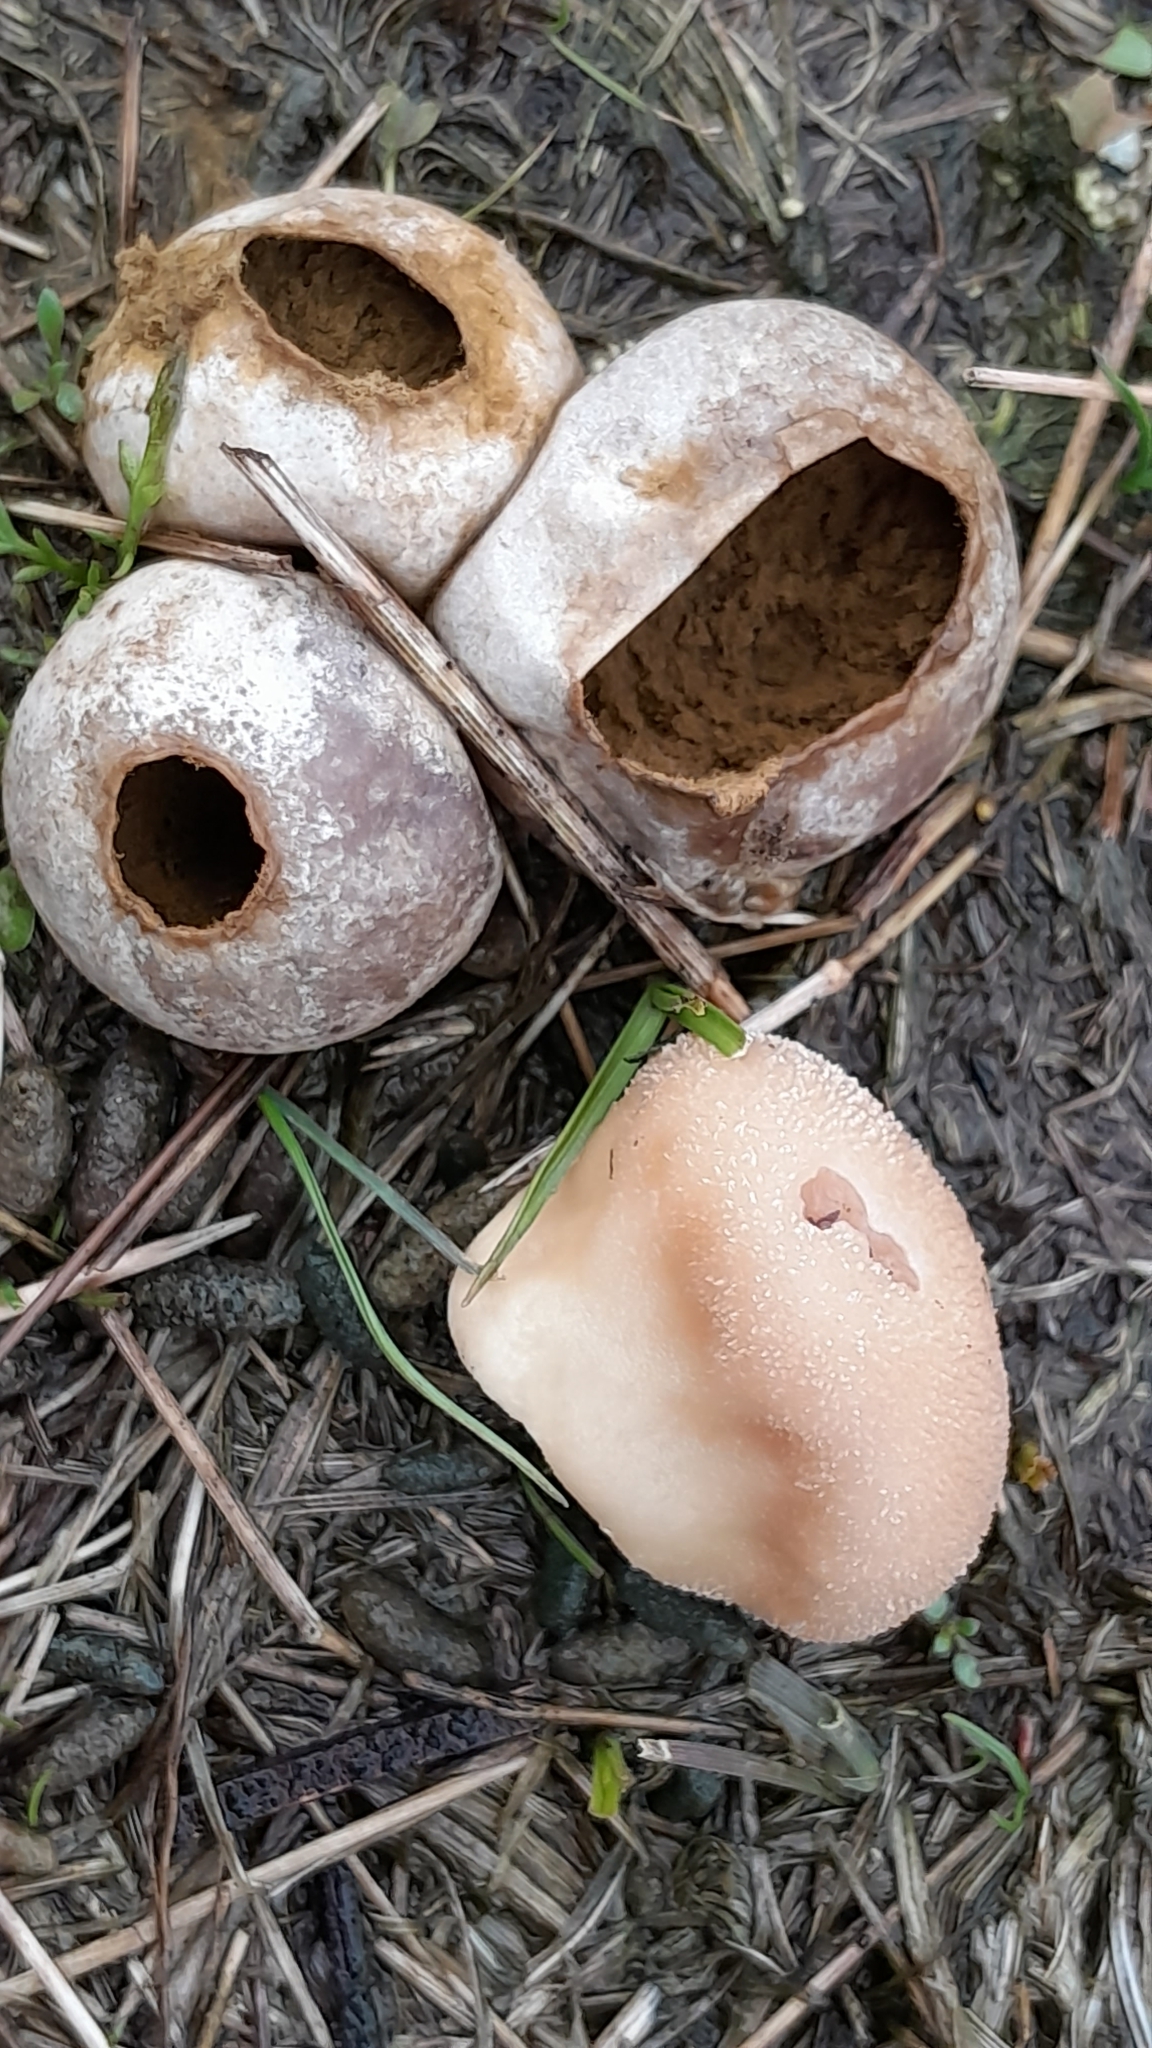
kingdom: Fungi
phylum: Basidiomycota
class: Agaricomycetes
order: Agaricales
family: Lycoperdaceae
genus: Lycoperdon
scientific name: Lycoperdon pratense
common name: Meadow puffball
